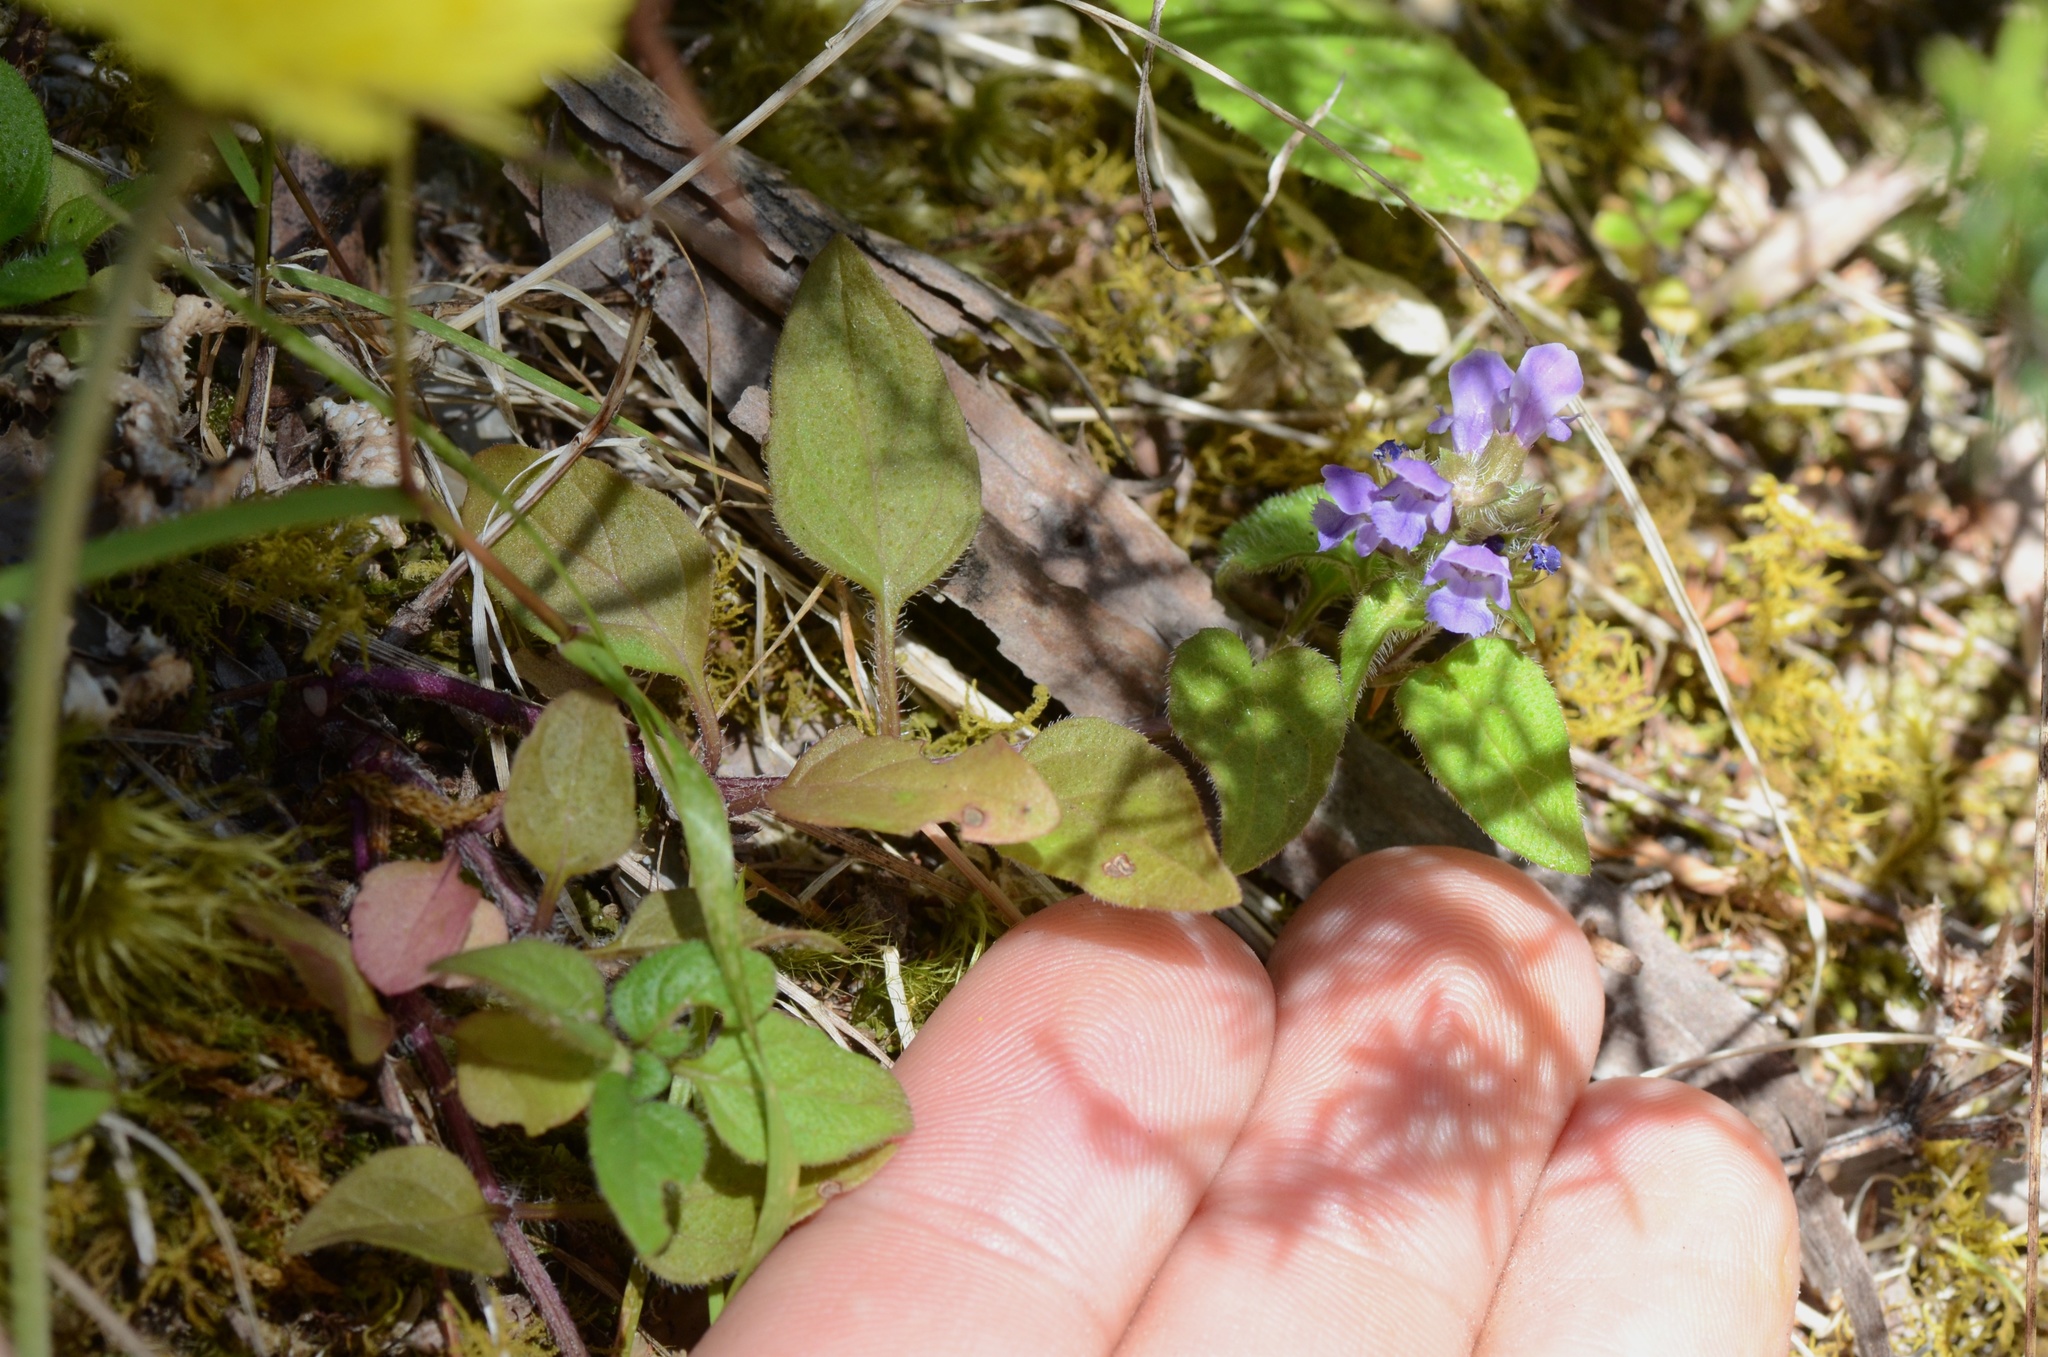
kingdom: Plantae
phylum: Tracheophyta
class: Magnoliopsida
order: Lamiales
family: Lamiaceae
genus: Prunella
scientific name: Prunella vulgaris
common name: Heal-all
